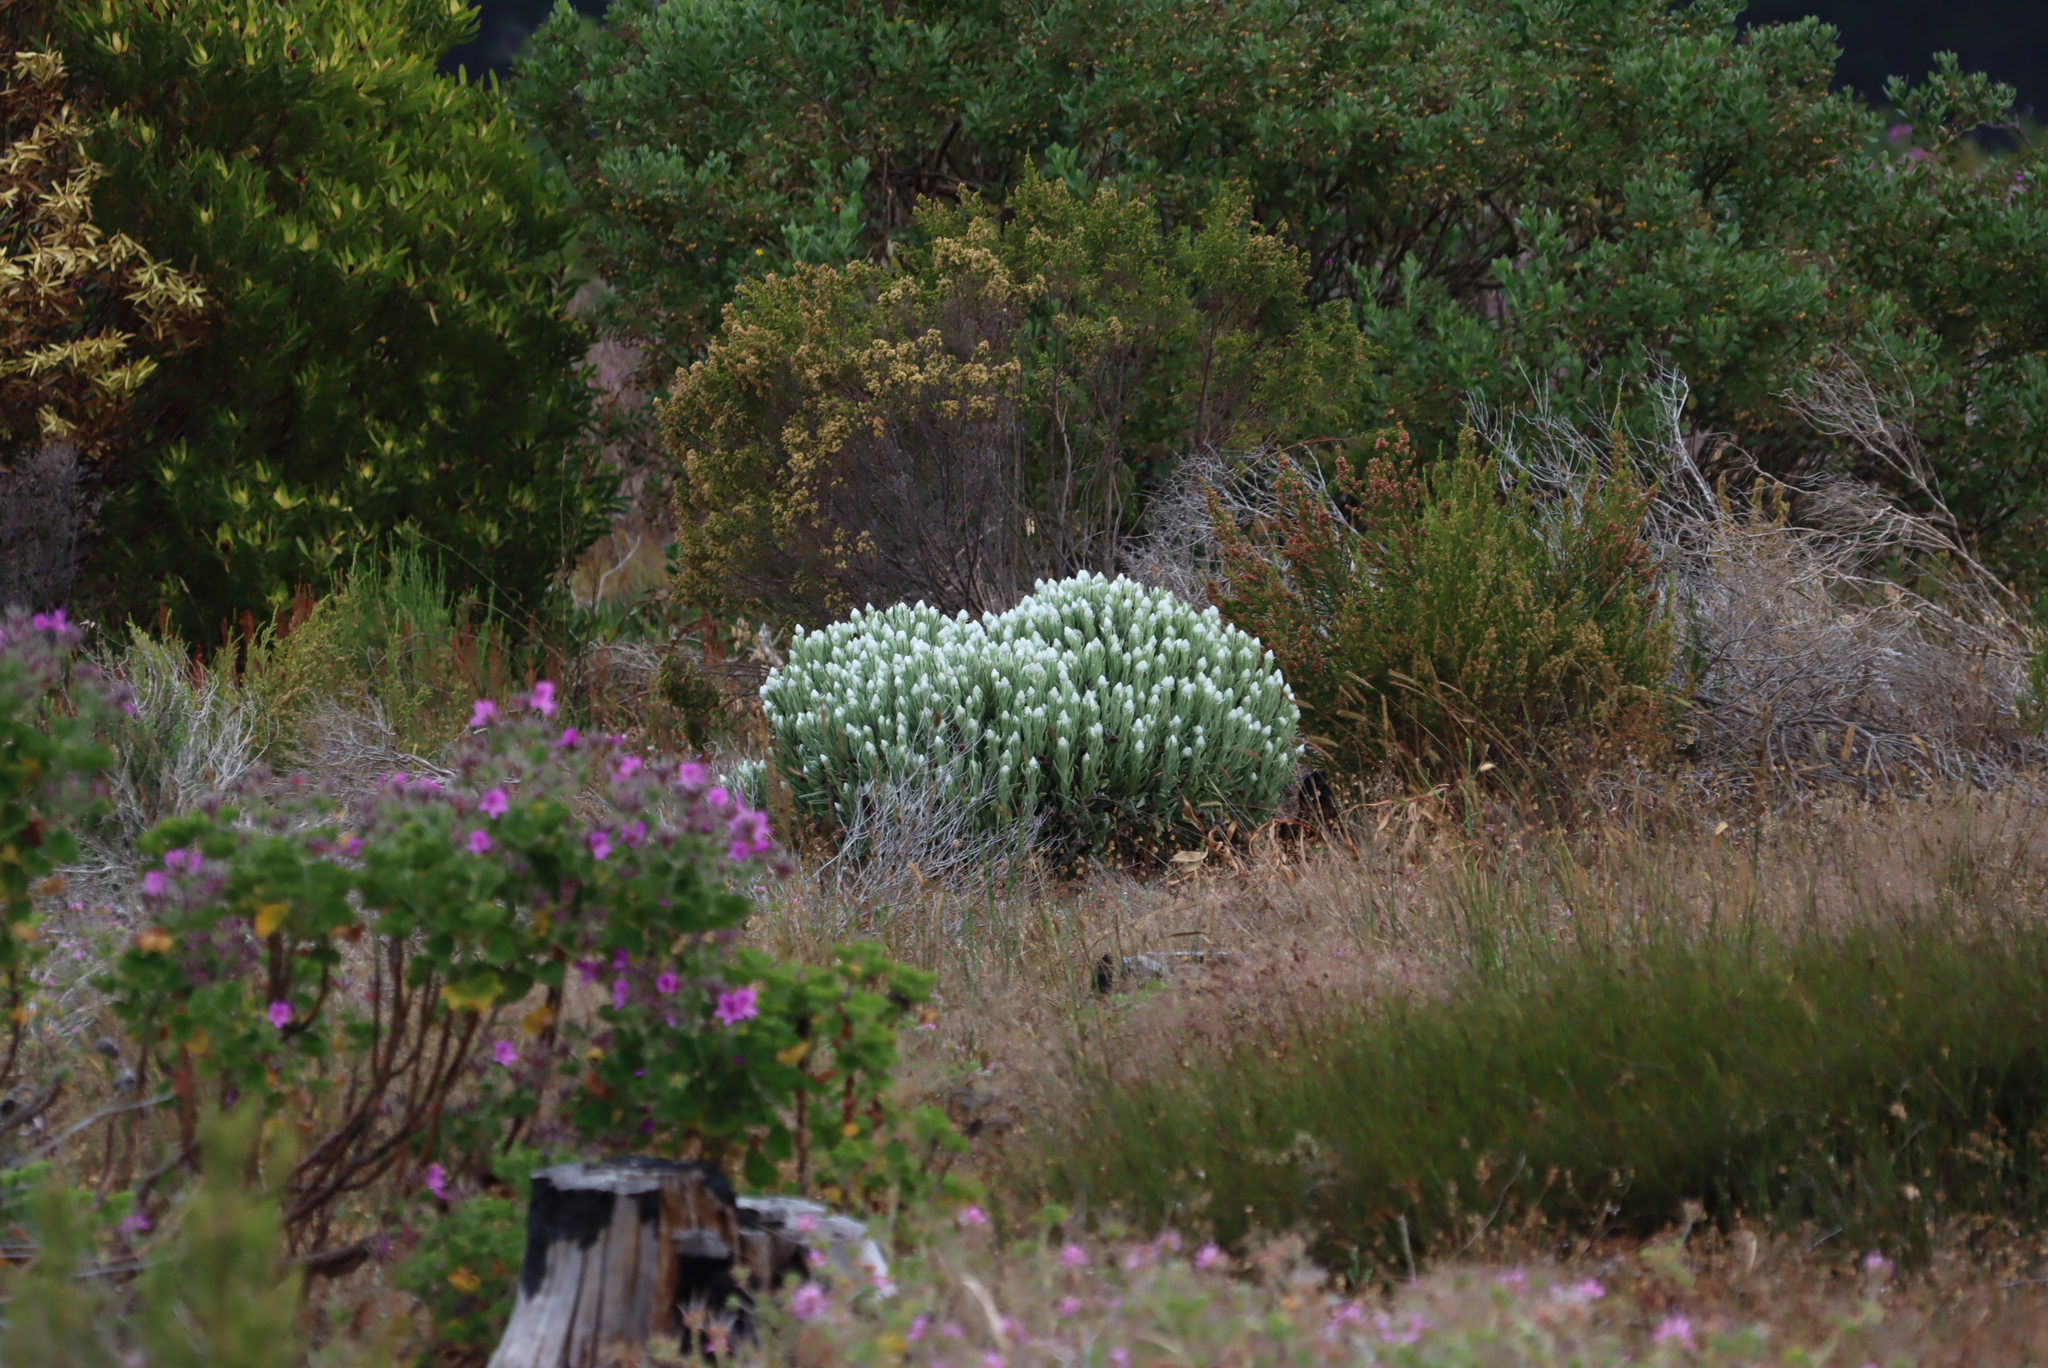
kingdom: Plantae
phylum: Tracheophyta
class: Magnoliopsida
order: Asterales
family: Asteraceae
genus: Syncarpha
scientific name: Syncarpha vestita
